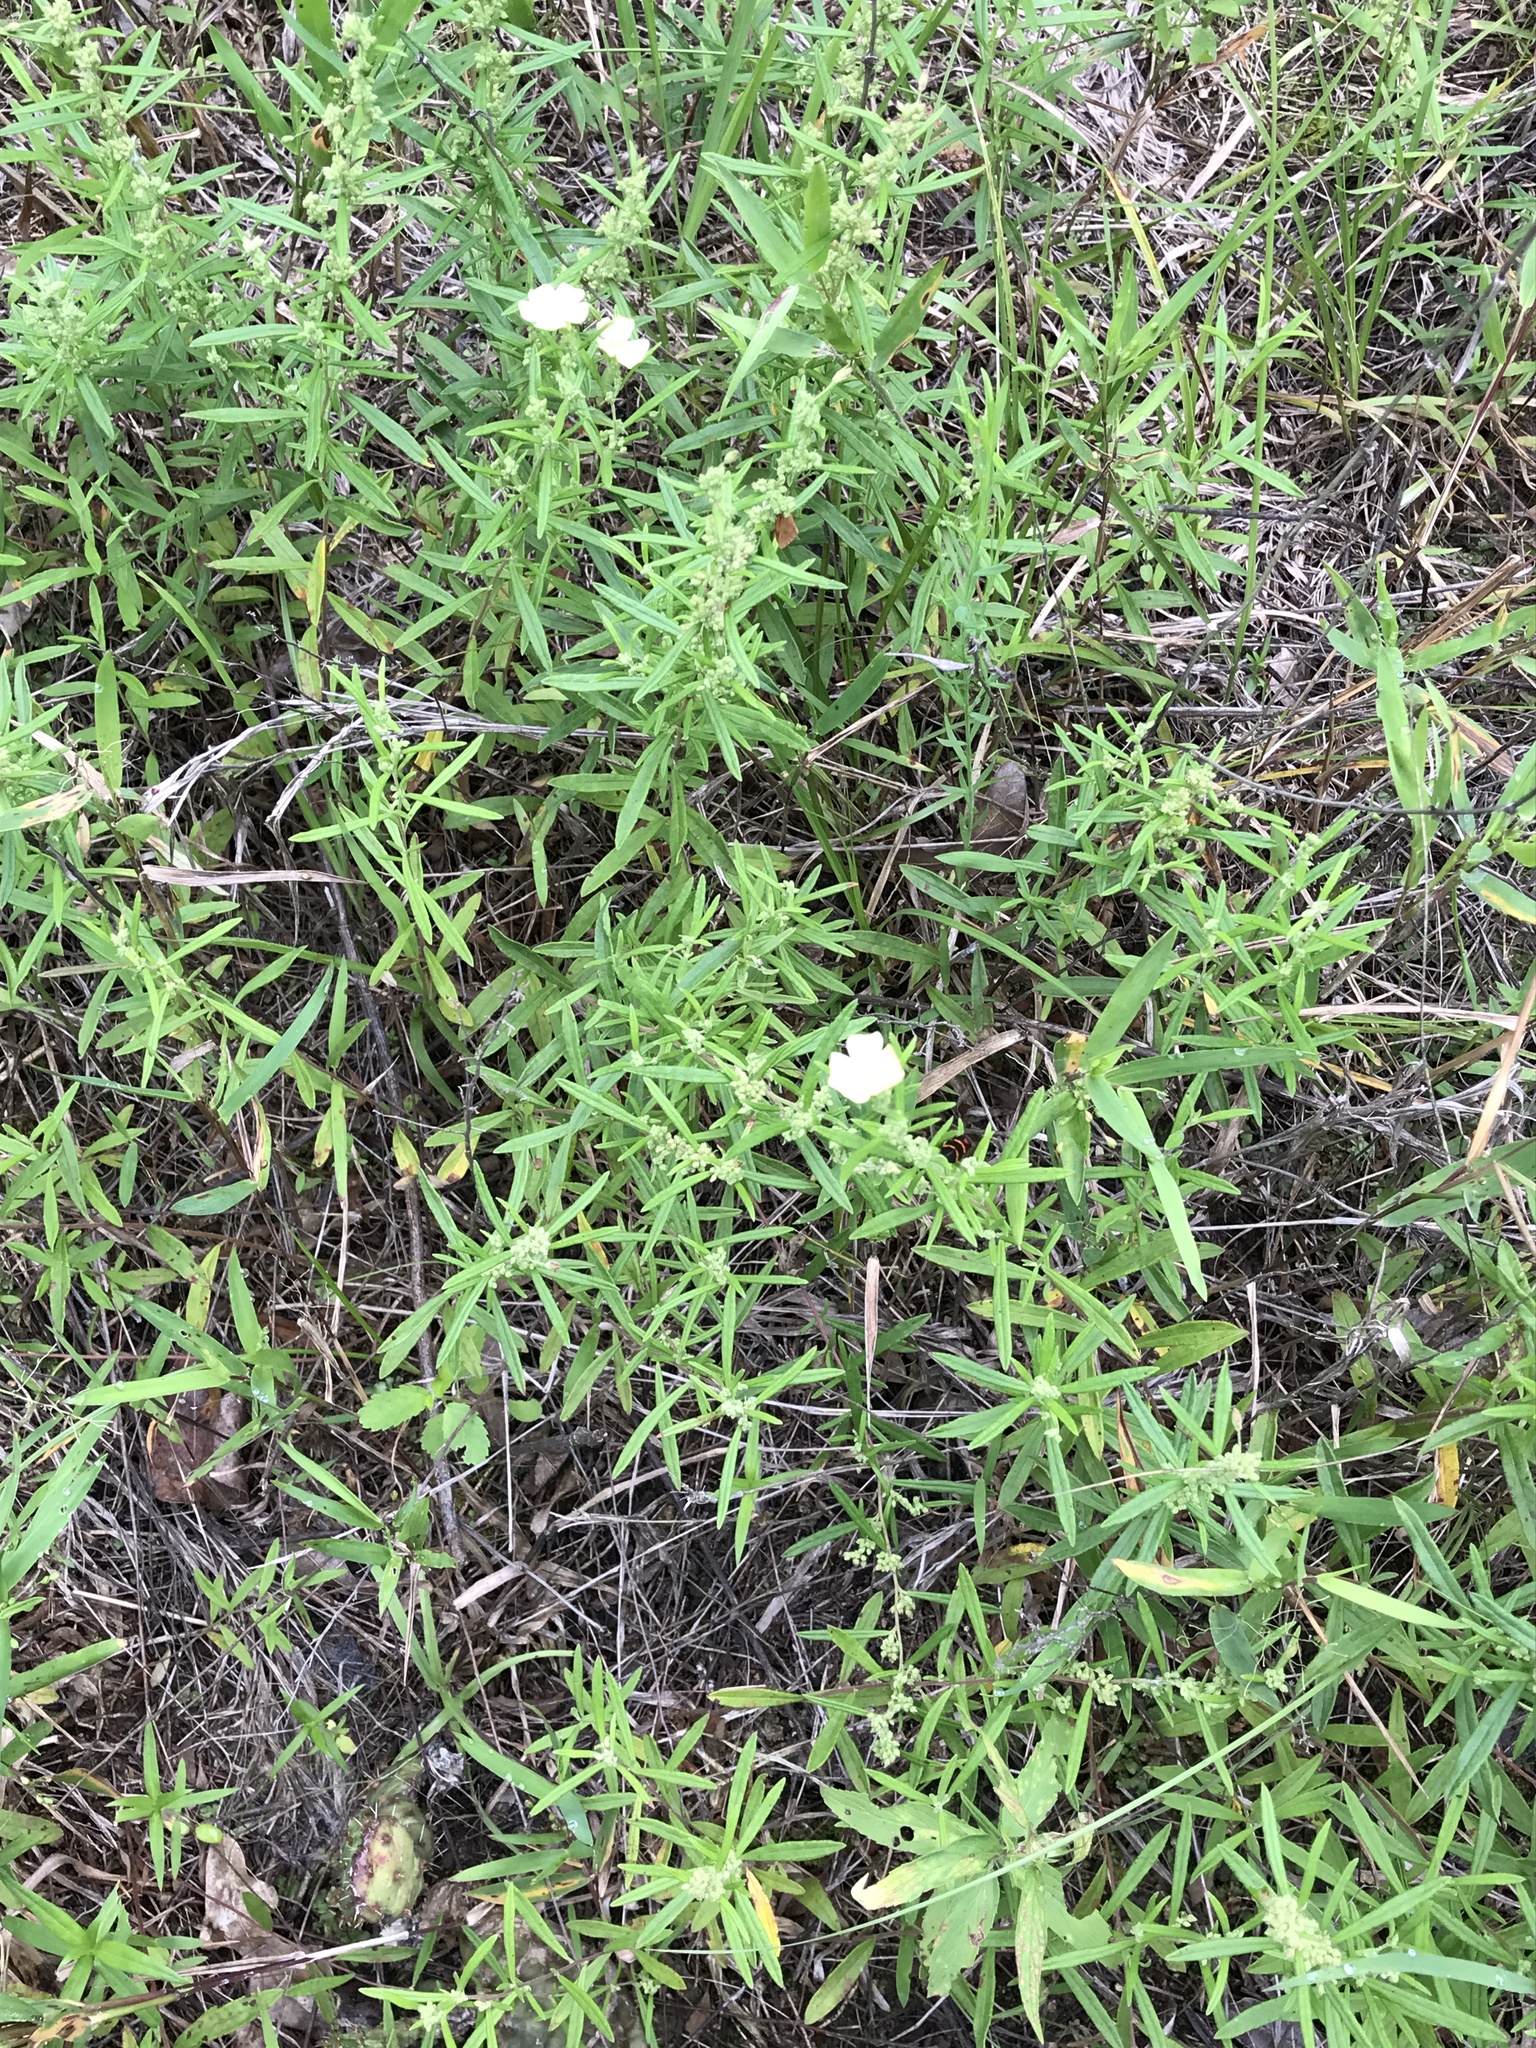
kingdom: Plantae
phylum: Tracheophyta
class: Magnoliopsida
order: Malvales
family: Cistaceae
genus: Crocanthemum
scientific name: Crocanthemum rosmarinifolium
